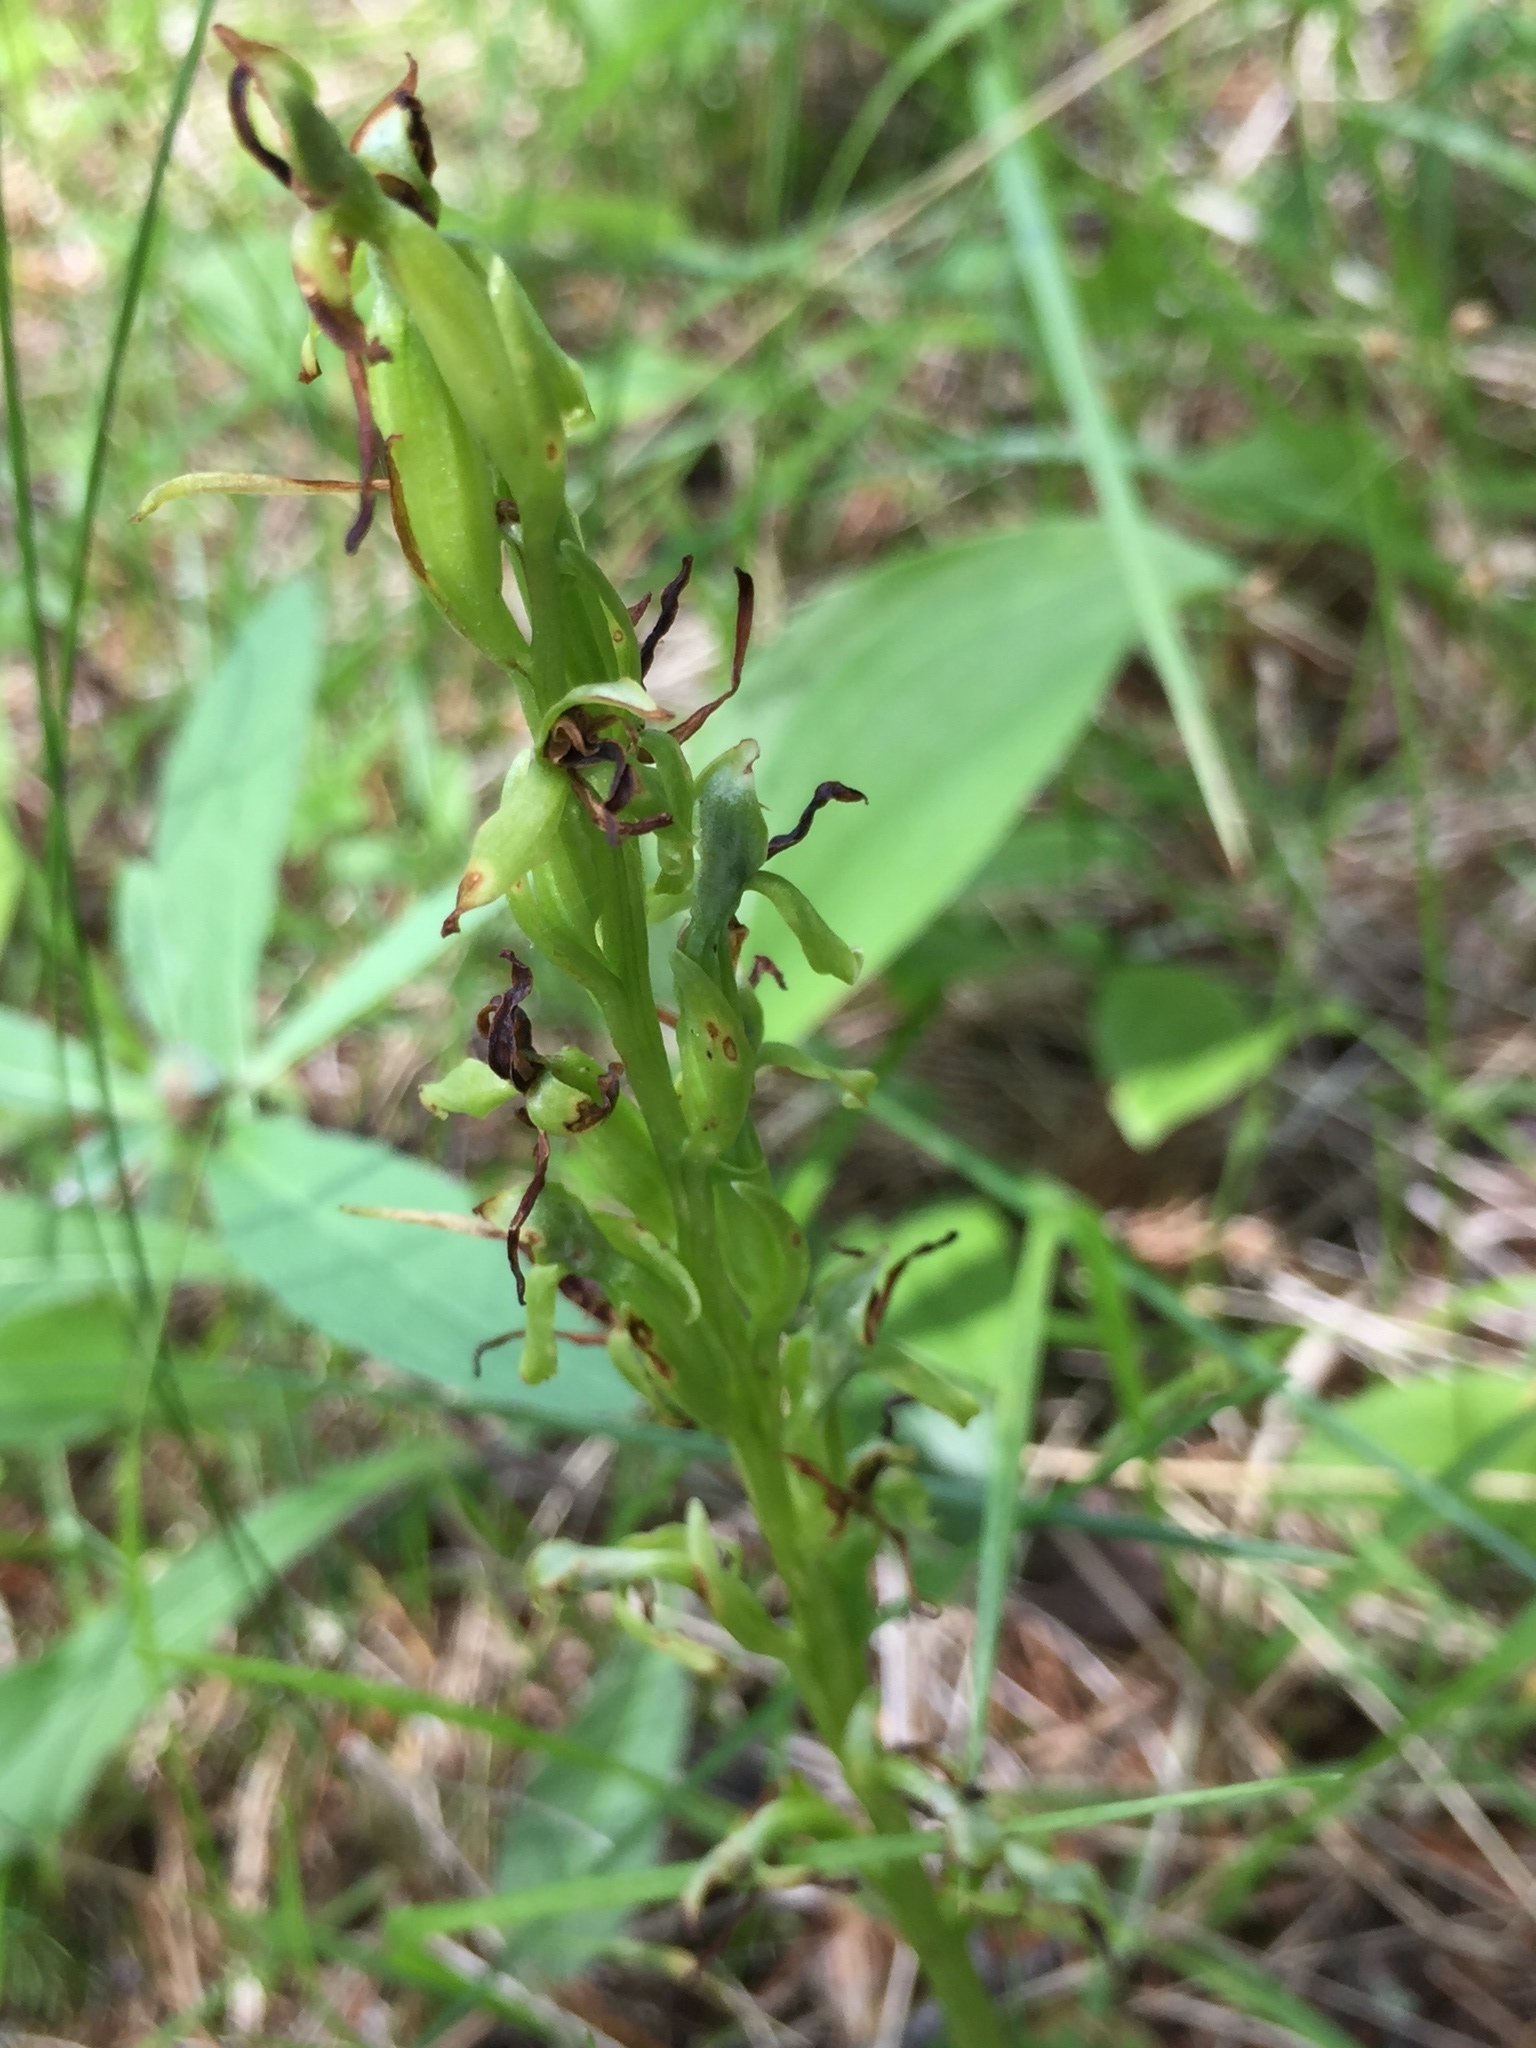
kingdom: Plantae
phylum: Tracheophyta
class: Liliopsida
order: Asparagales
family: Orchidaceae
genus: Platanthera
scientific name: Platanthera hookeri
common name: Hooker's orchid
